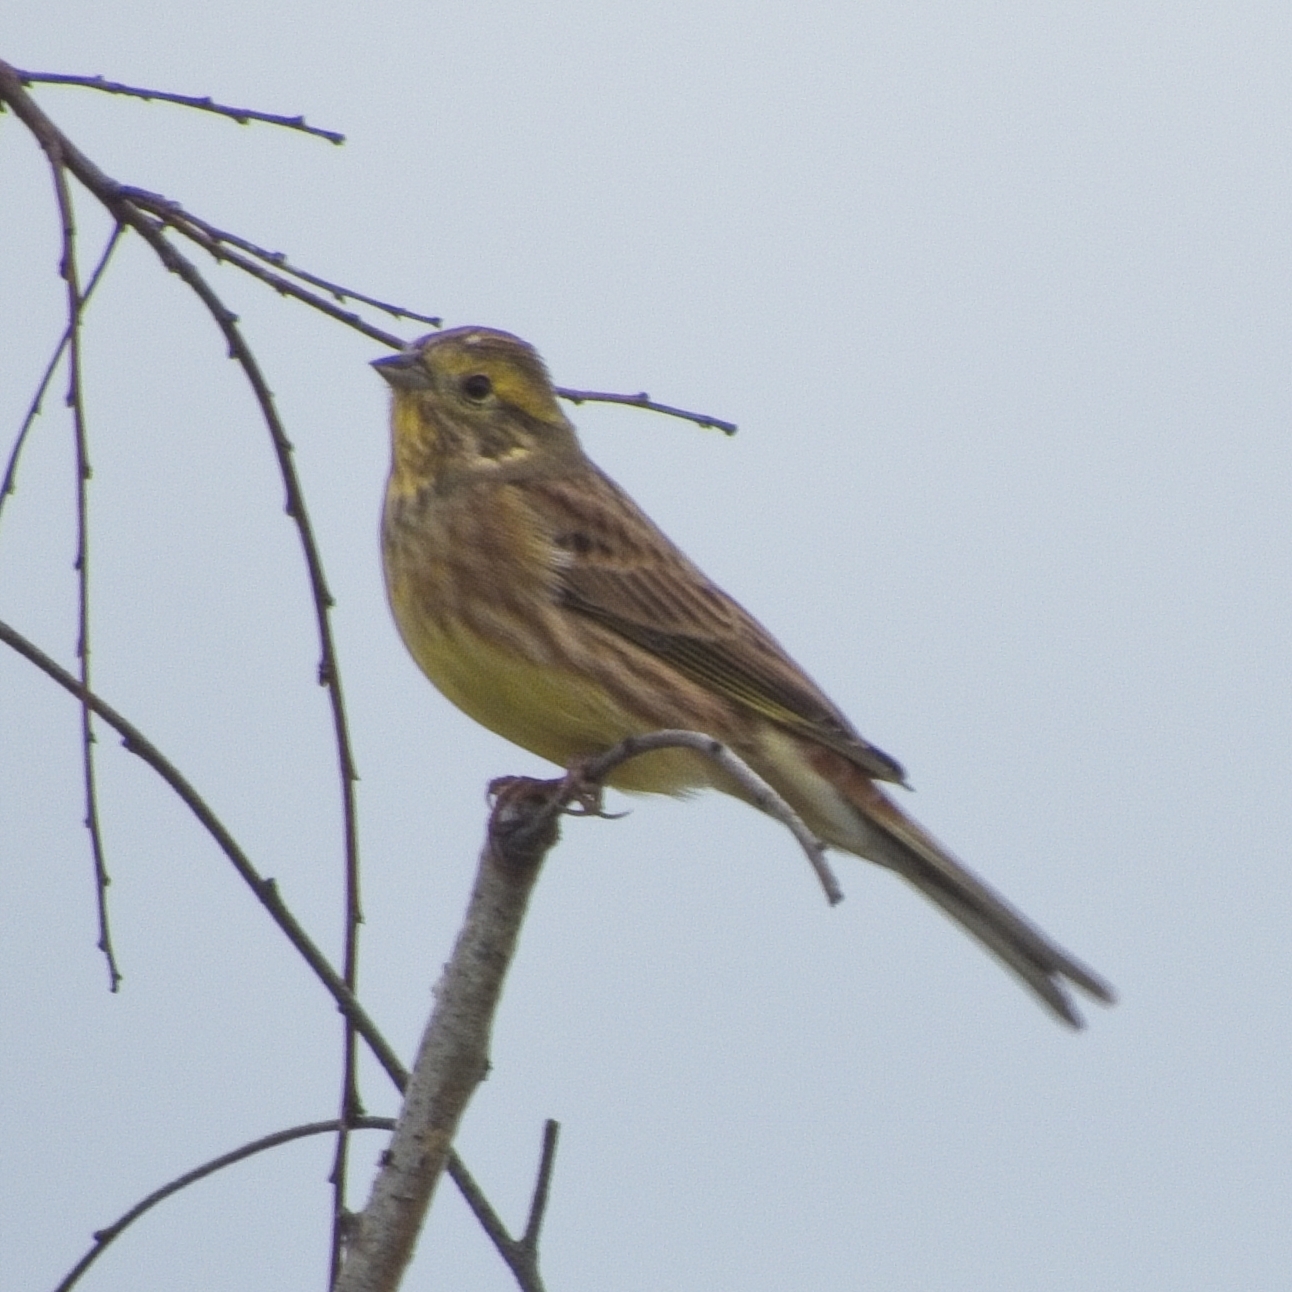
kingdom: Animalia
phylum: Chordata
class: Aves
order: Passeriformes
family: Emberizidae
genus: Emberiza
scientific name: Emberiza citrinella
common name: Yellowhammer
